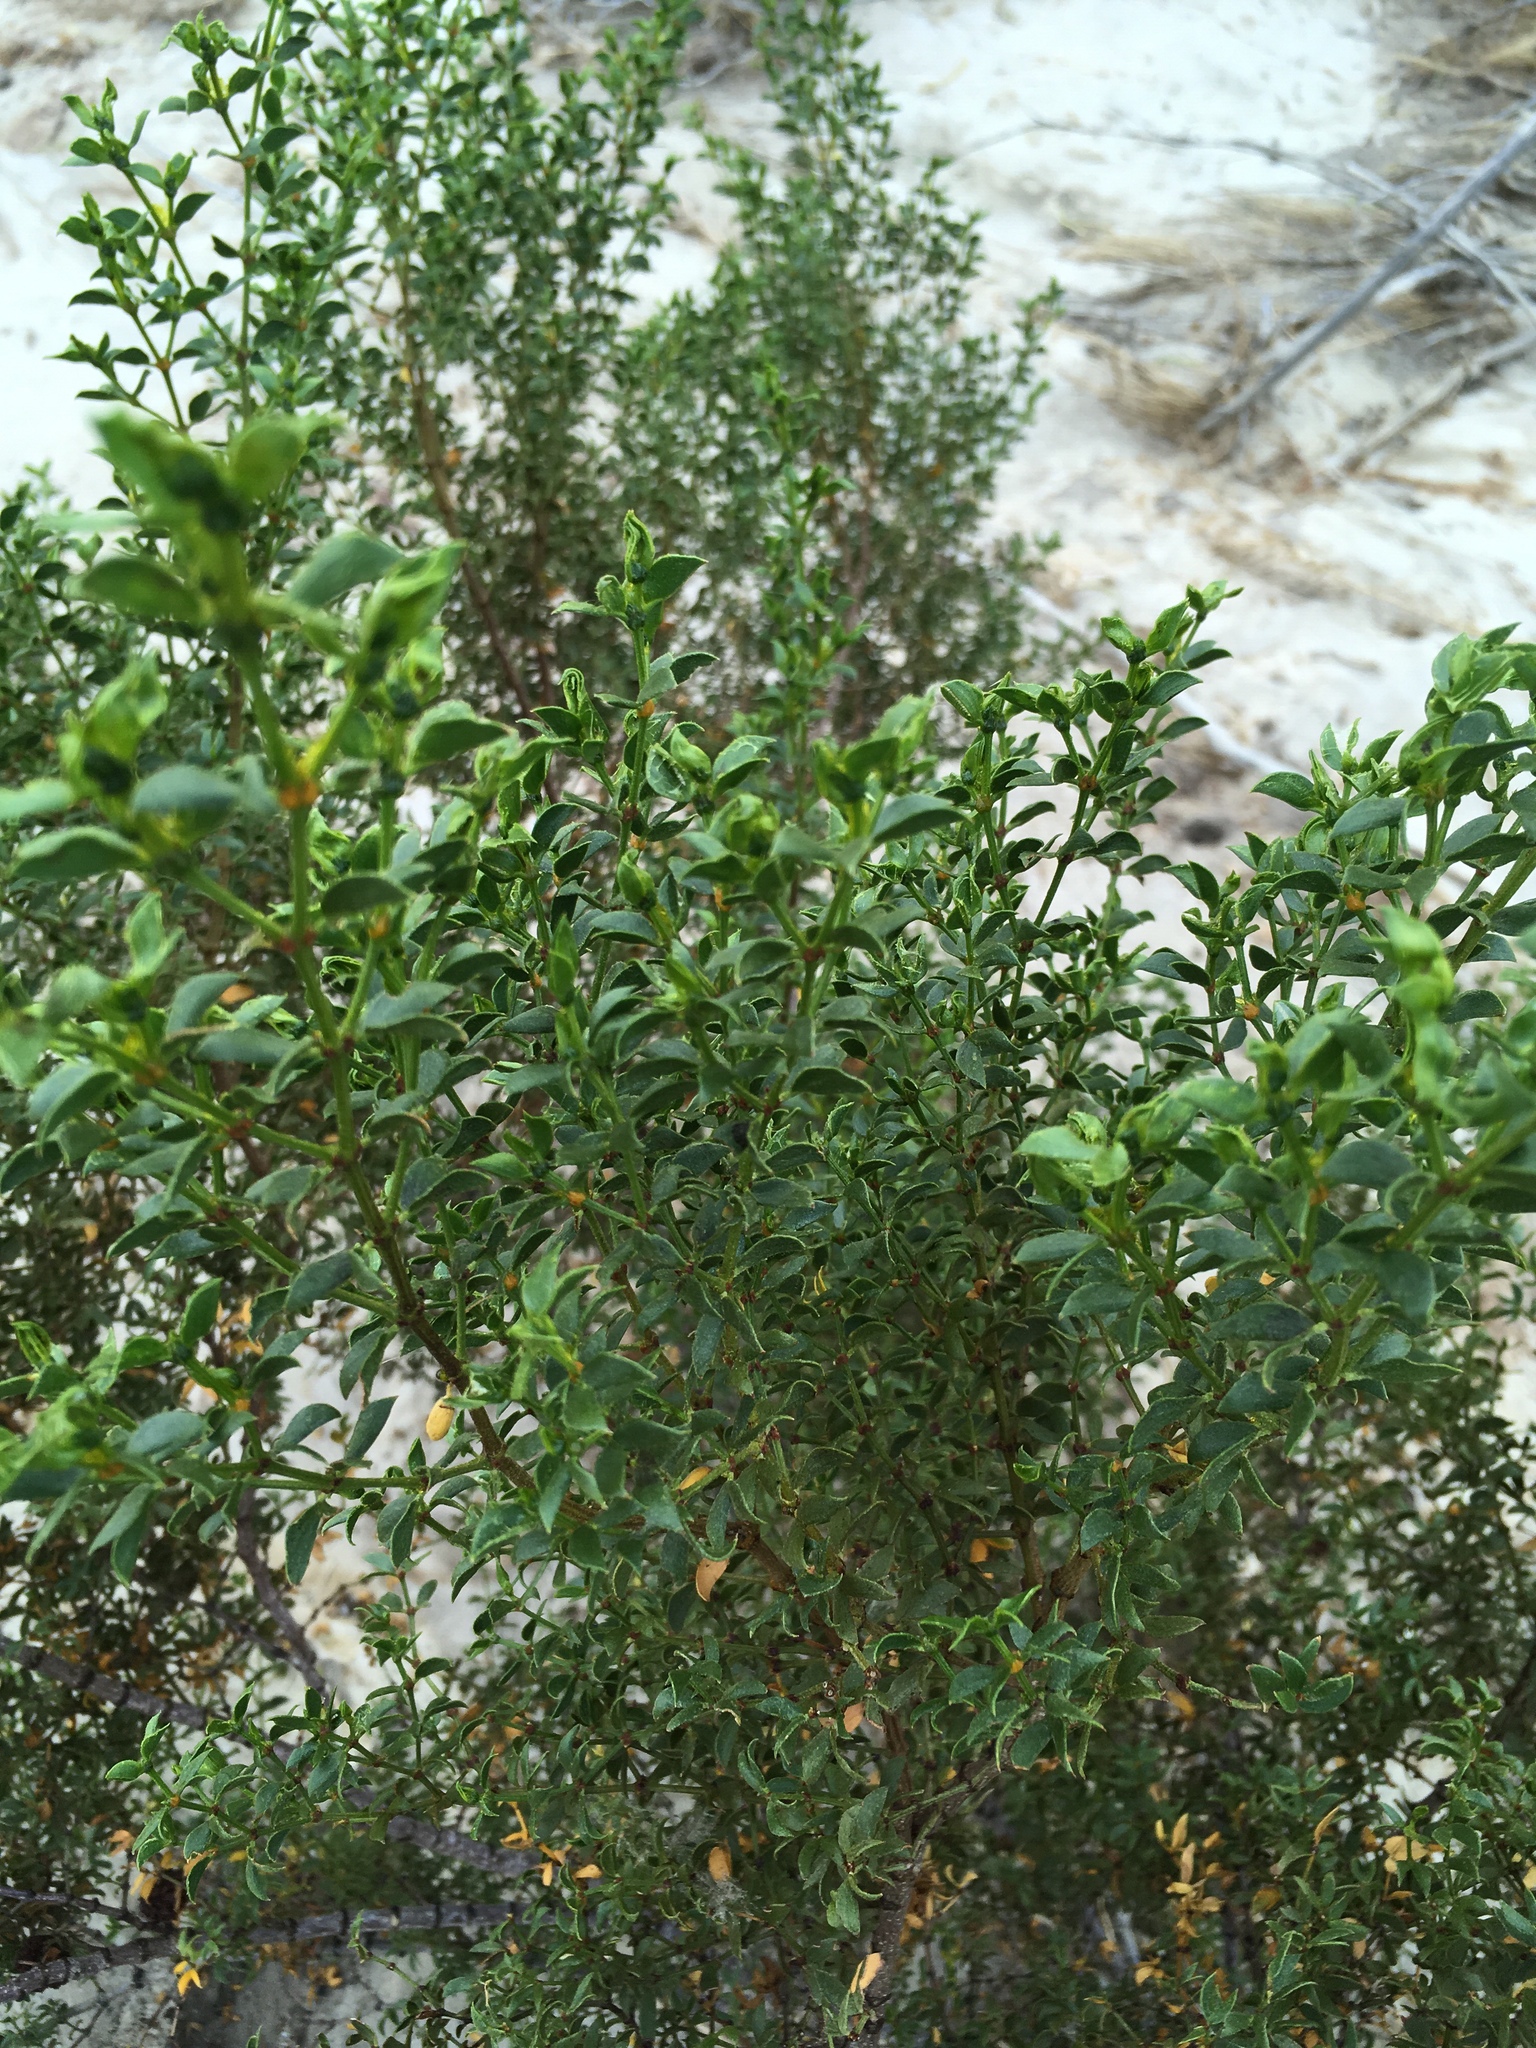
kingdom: Plantae
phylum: Tracheophyta
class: Magnoliopsida
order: Zygophyllales
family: Zygophyllaceae
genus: Larrea
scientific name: Larrea tridentata
